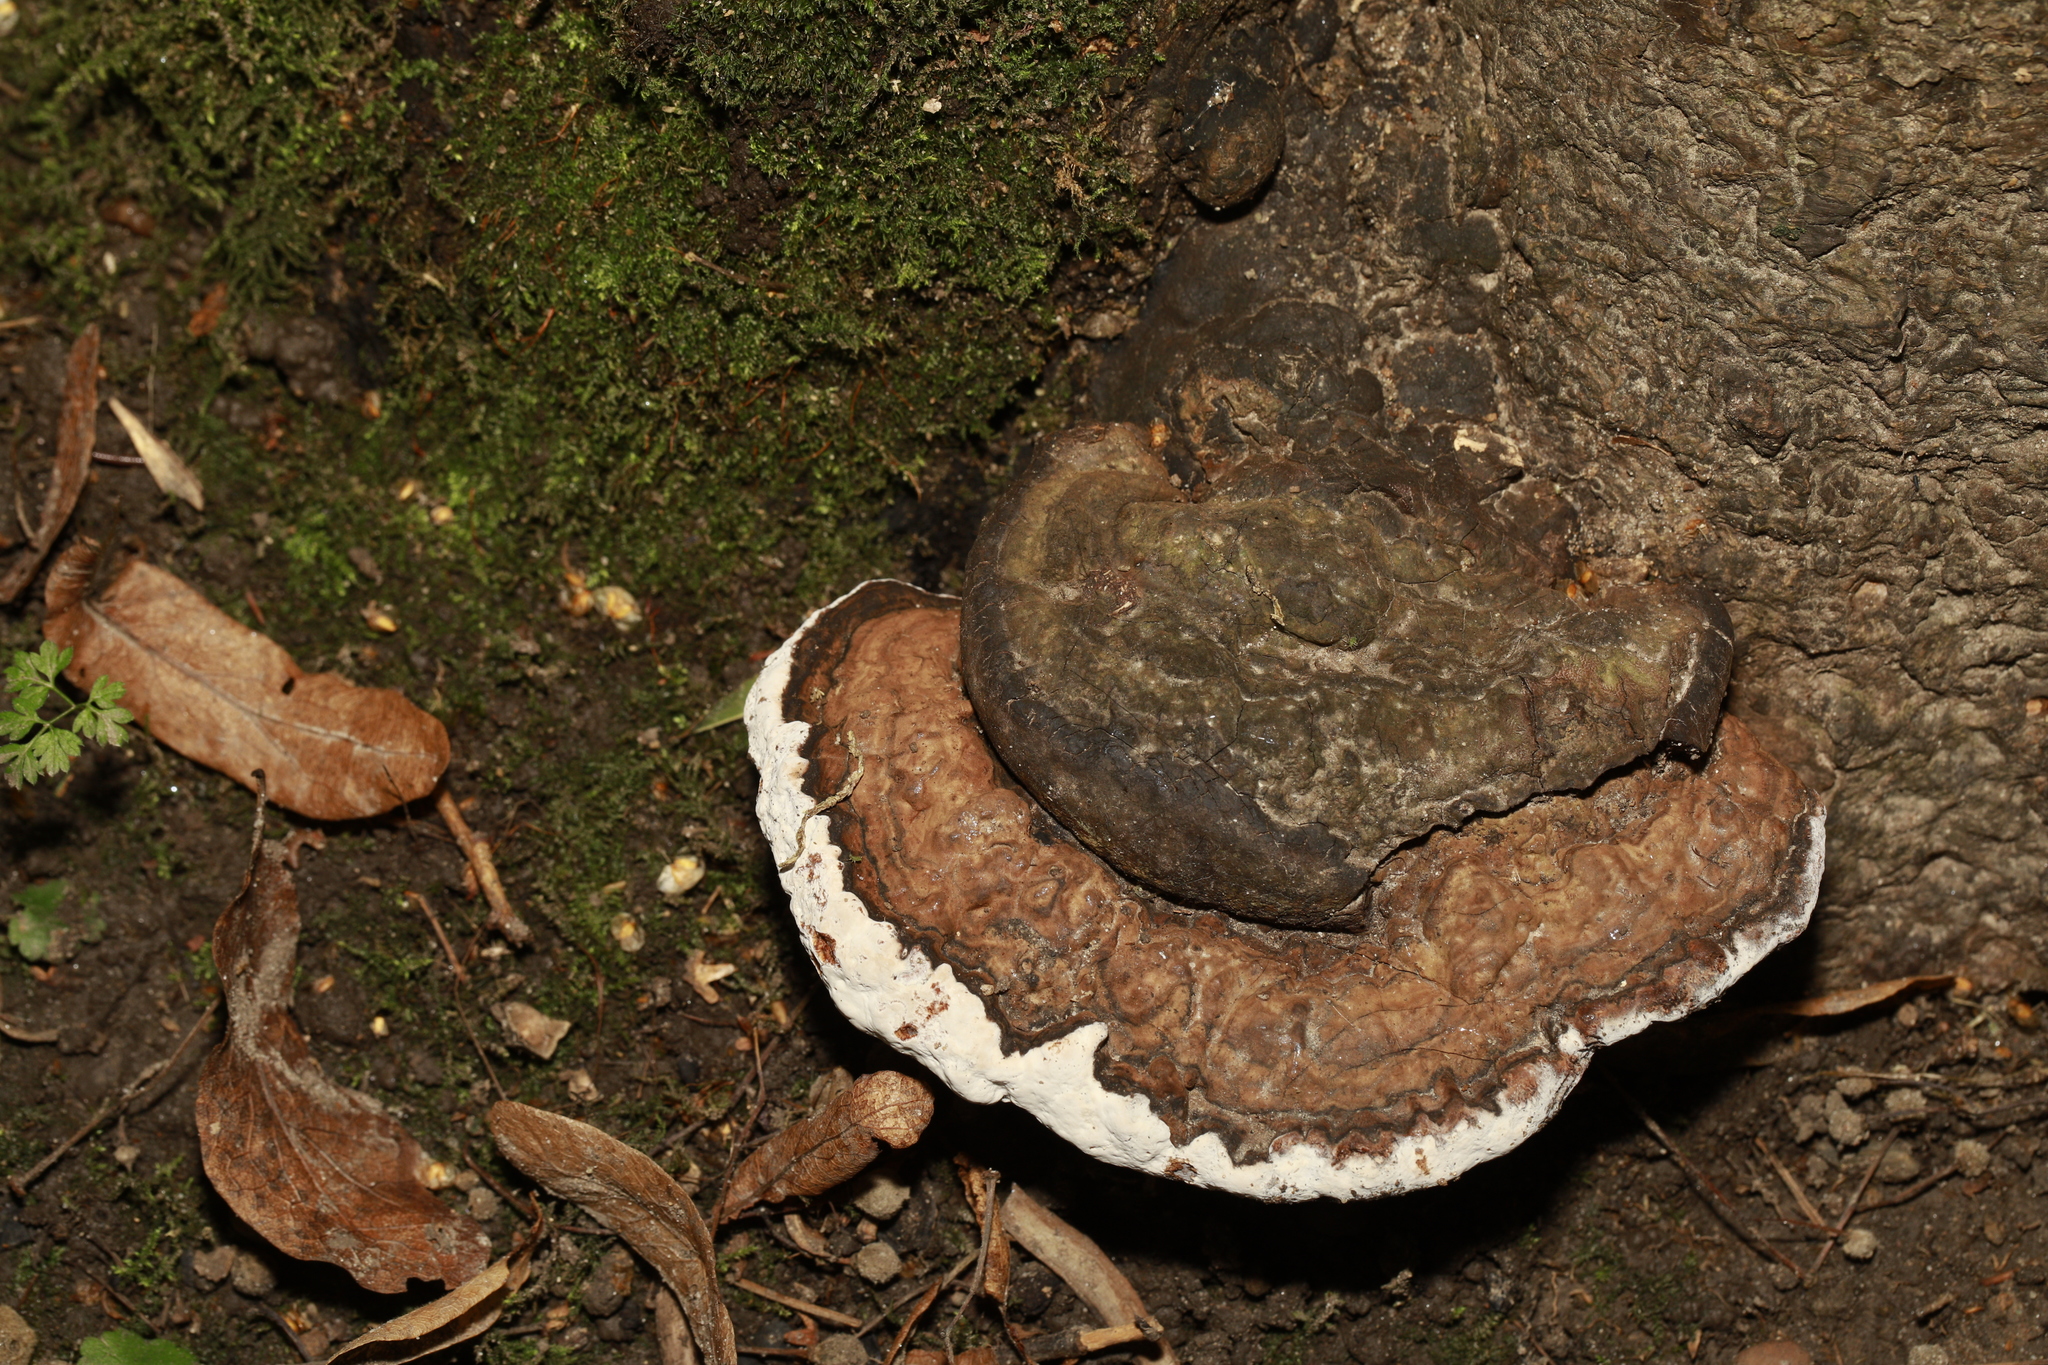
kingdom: Fungi
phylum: Basidiomycota
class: Agaricomycetes
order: Polyporales
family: Polyporaceae
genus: Ganoderma
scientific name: Ganoderma applanatum
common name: Artist's bracket
